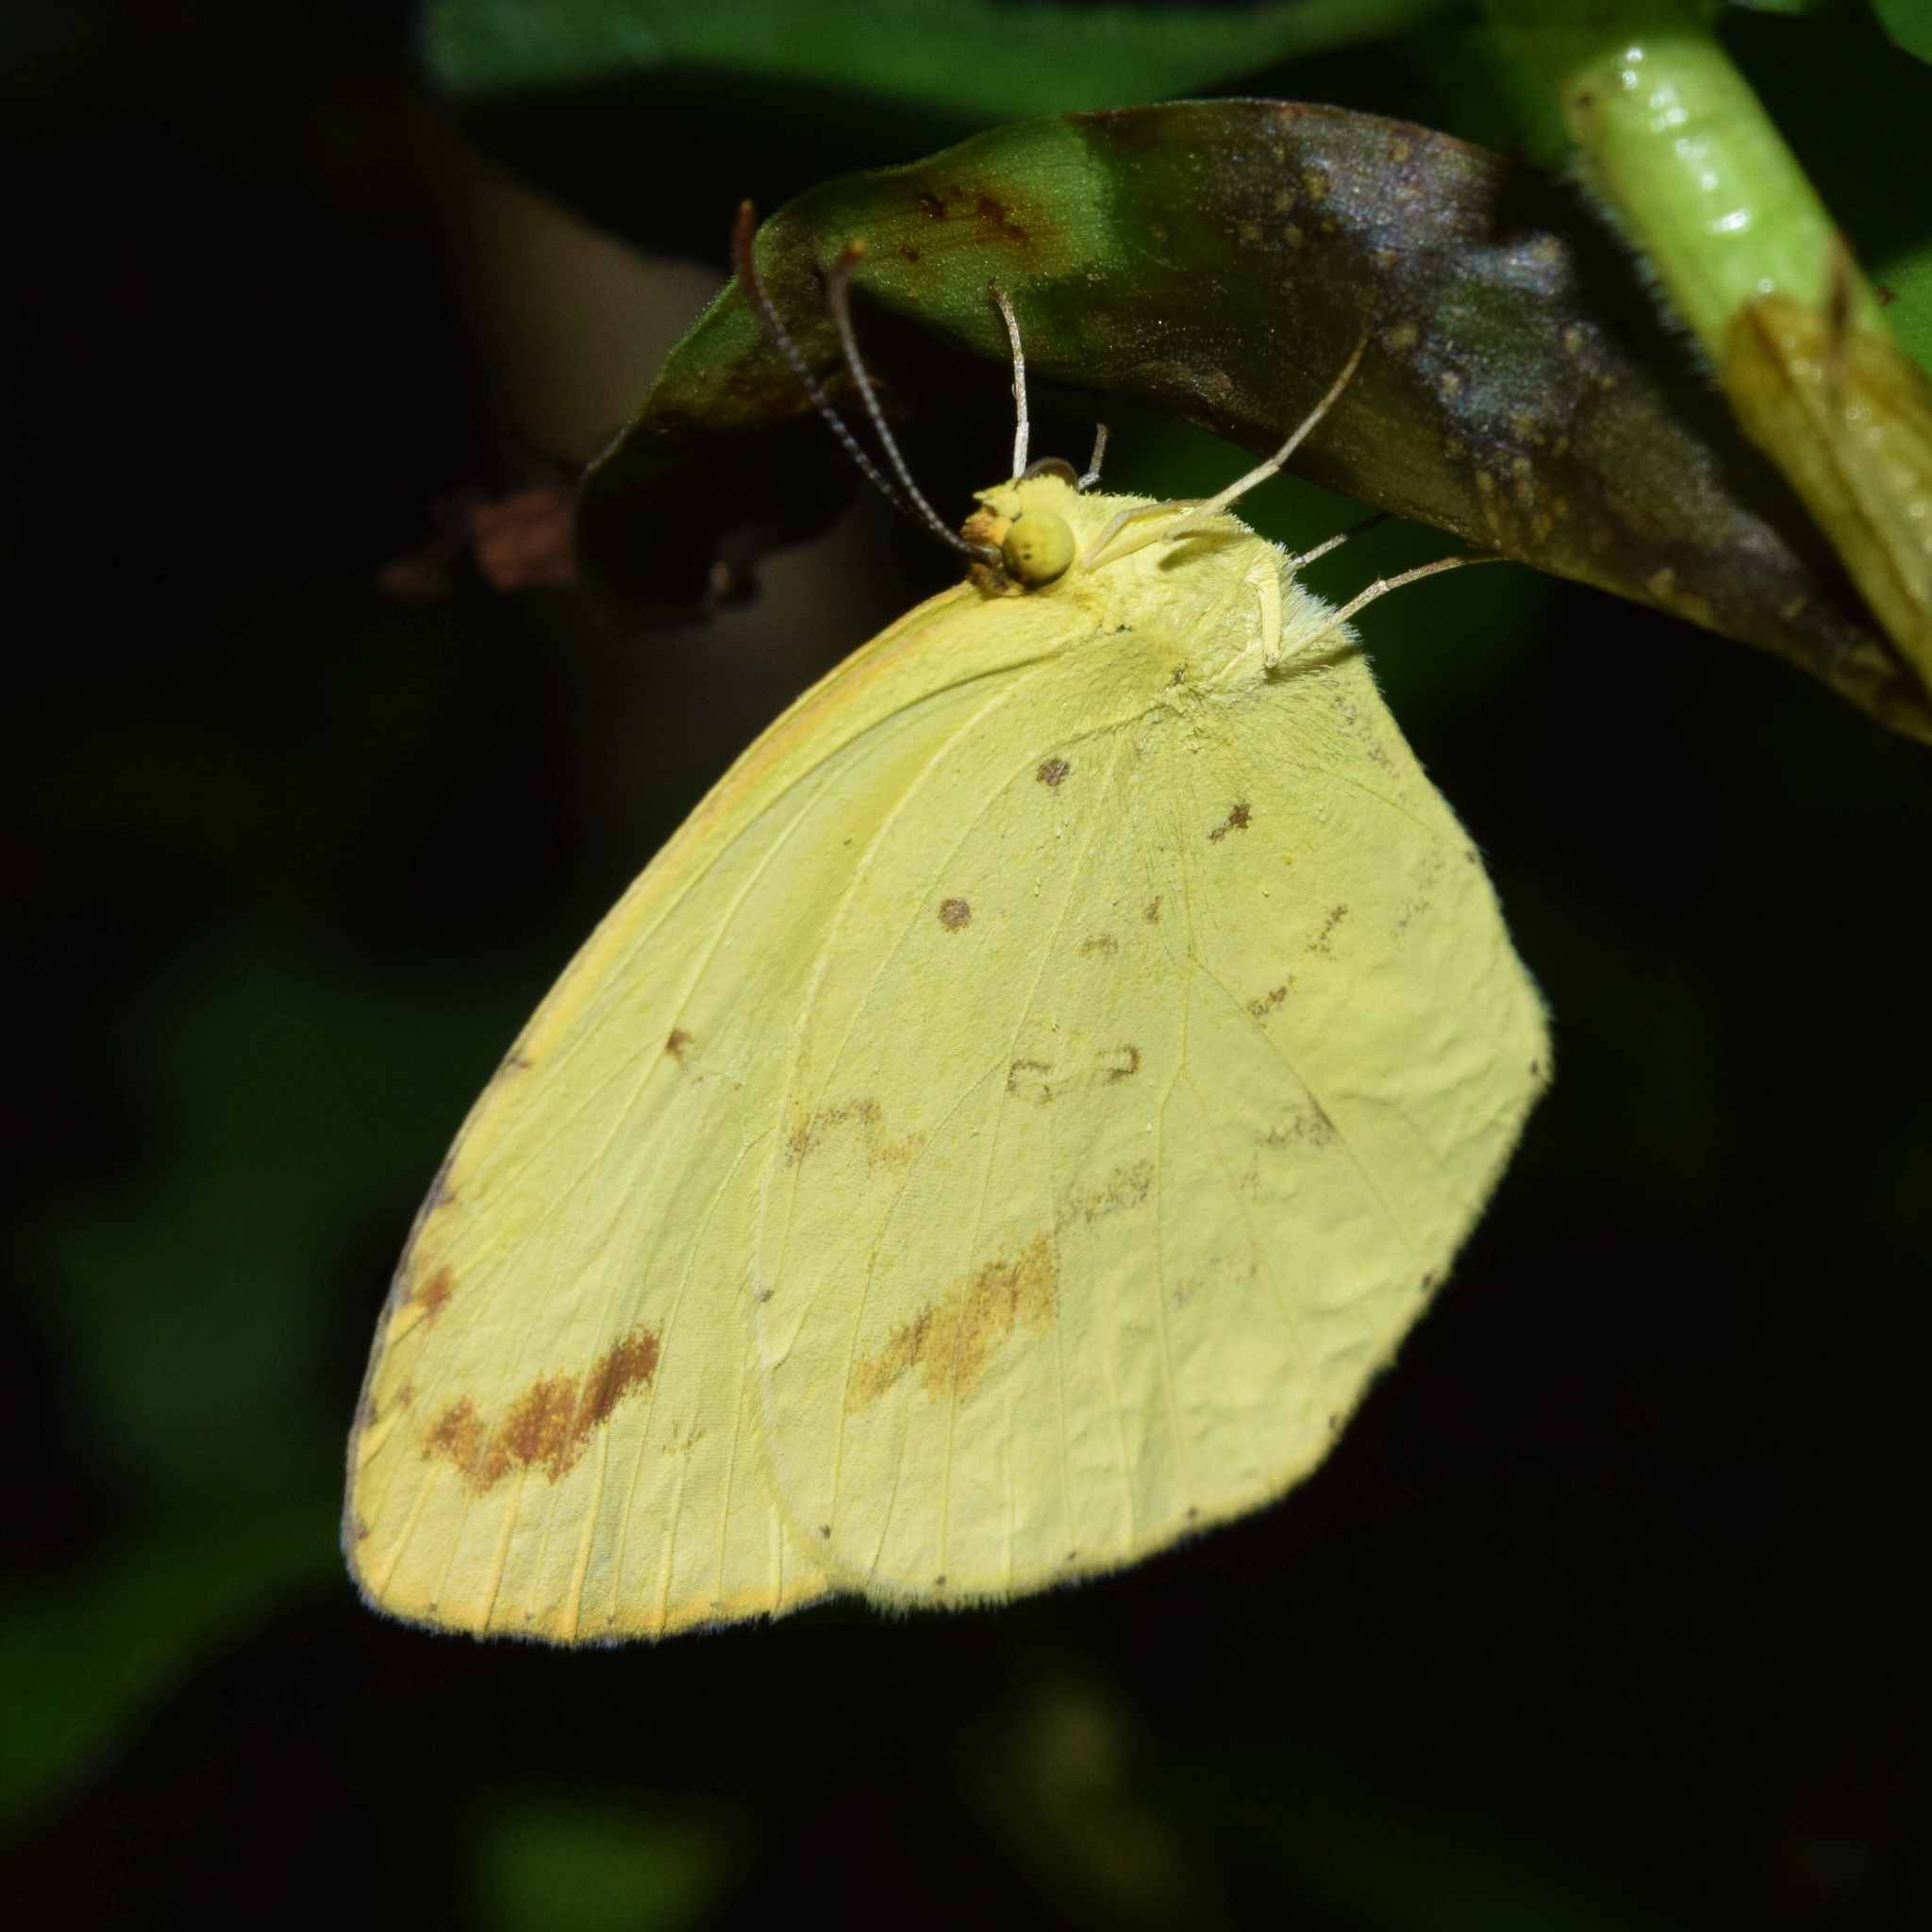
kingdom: Animalia
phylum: Arthropoda
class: Insecta
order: Lepidoptera
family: Pieridae
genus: Eurema
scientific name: Eurema regularis
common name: Regular grass yellow
